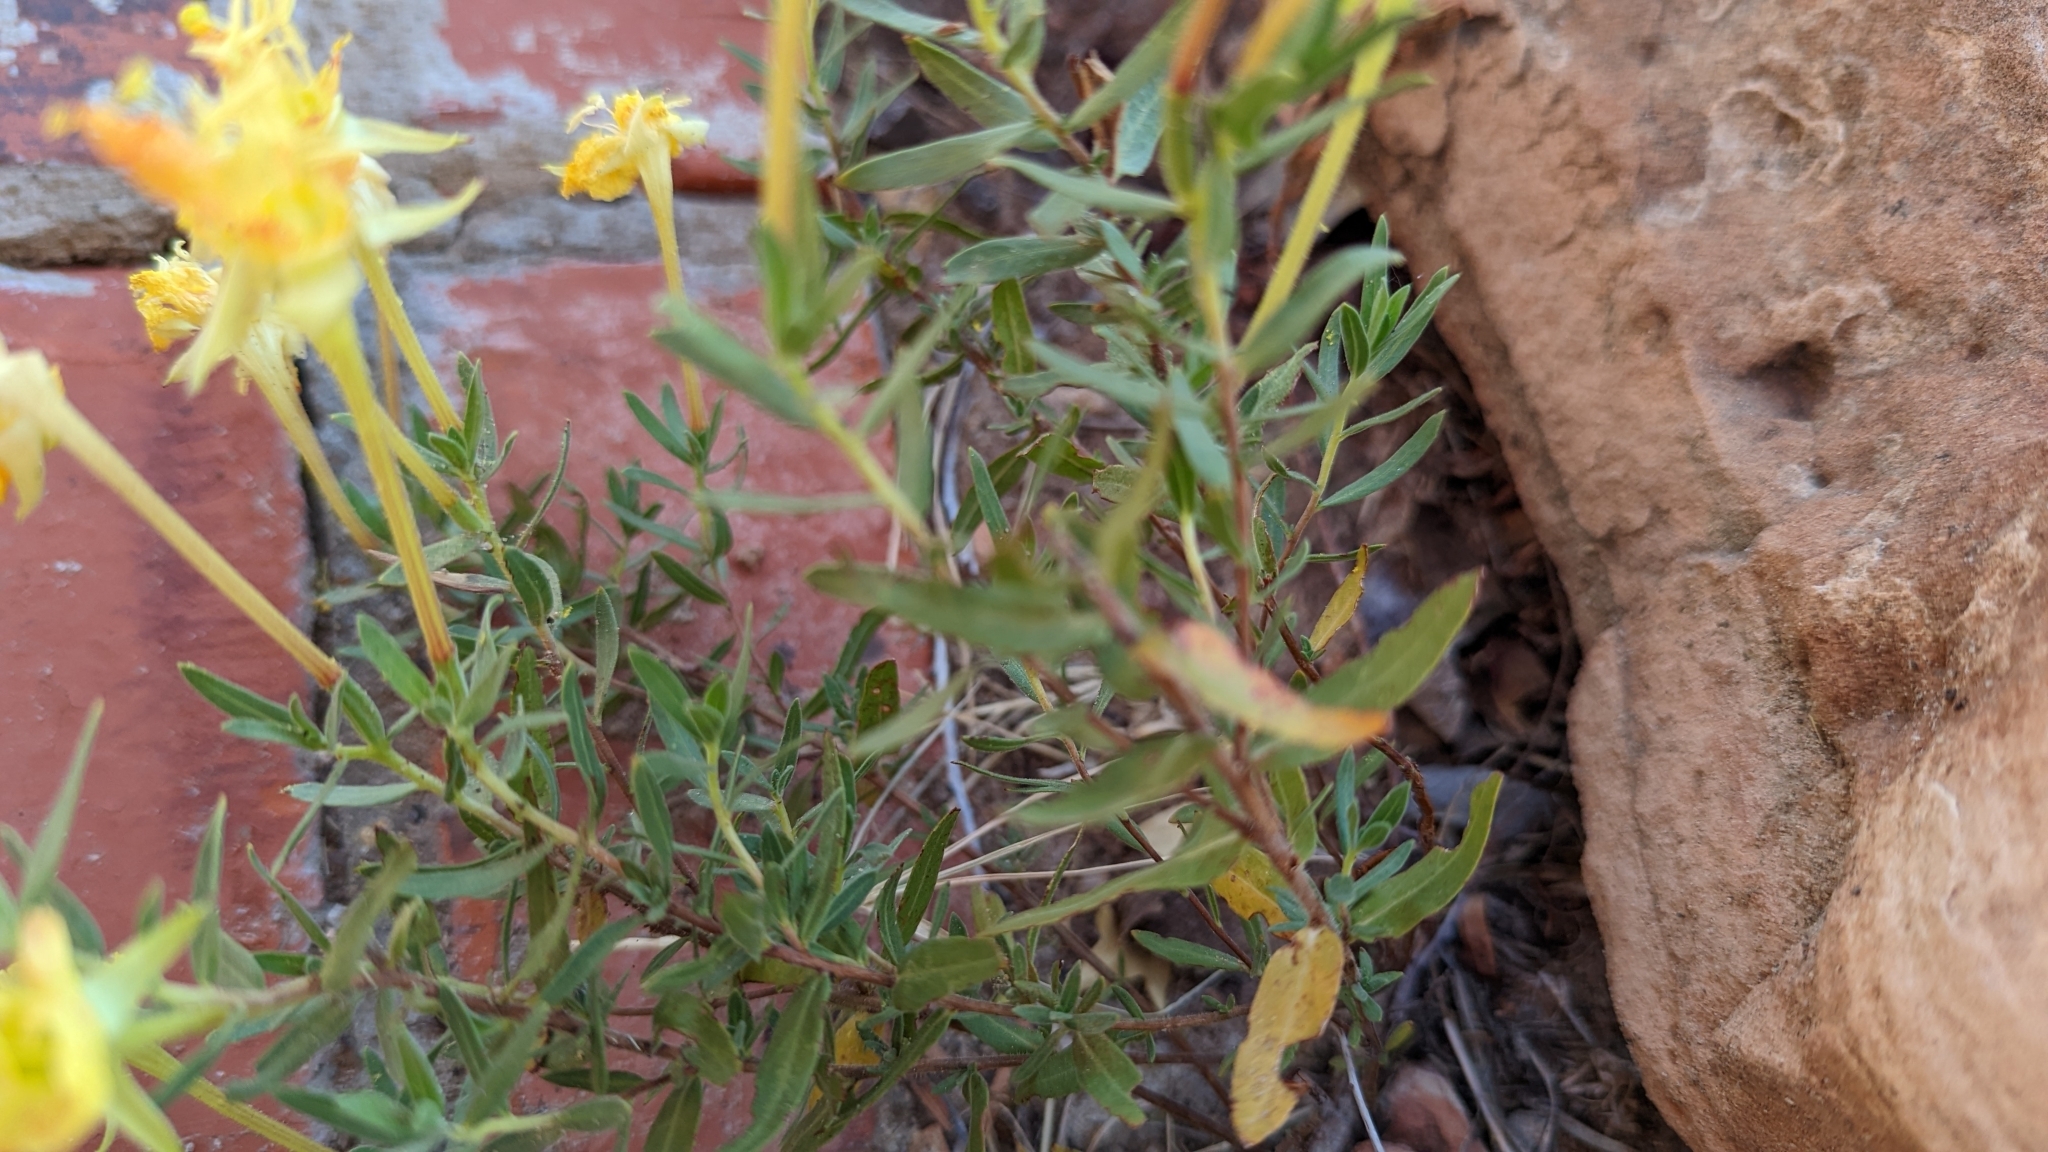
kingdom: Plantae
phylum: Tracheophyta
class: Magnoliopsida
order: Myrtales
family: Onagraceae
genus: Oenothera
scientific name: Oenothera hartwegii
